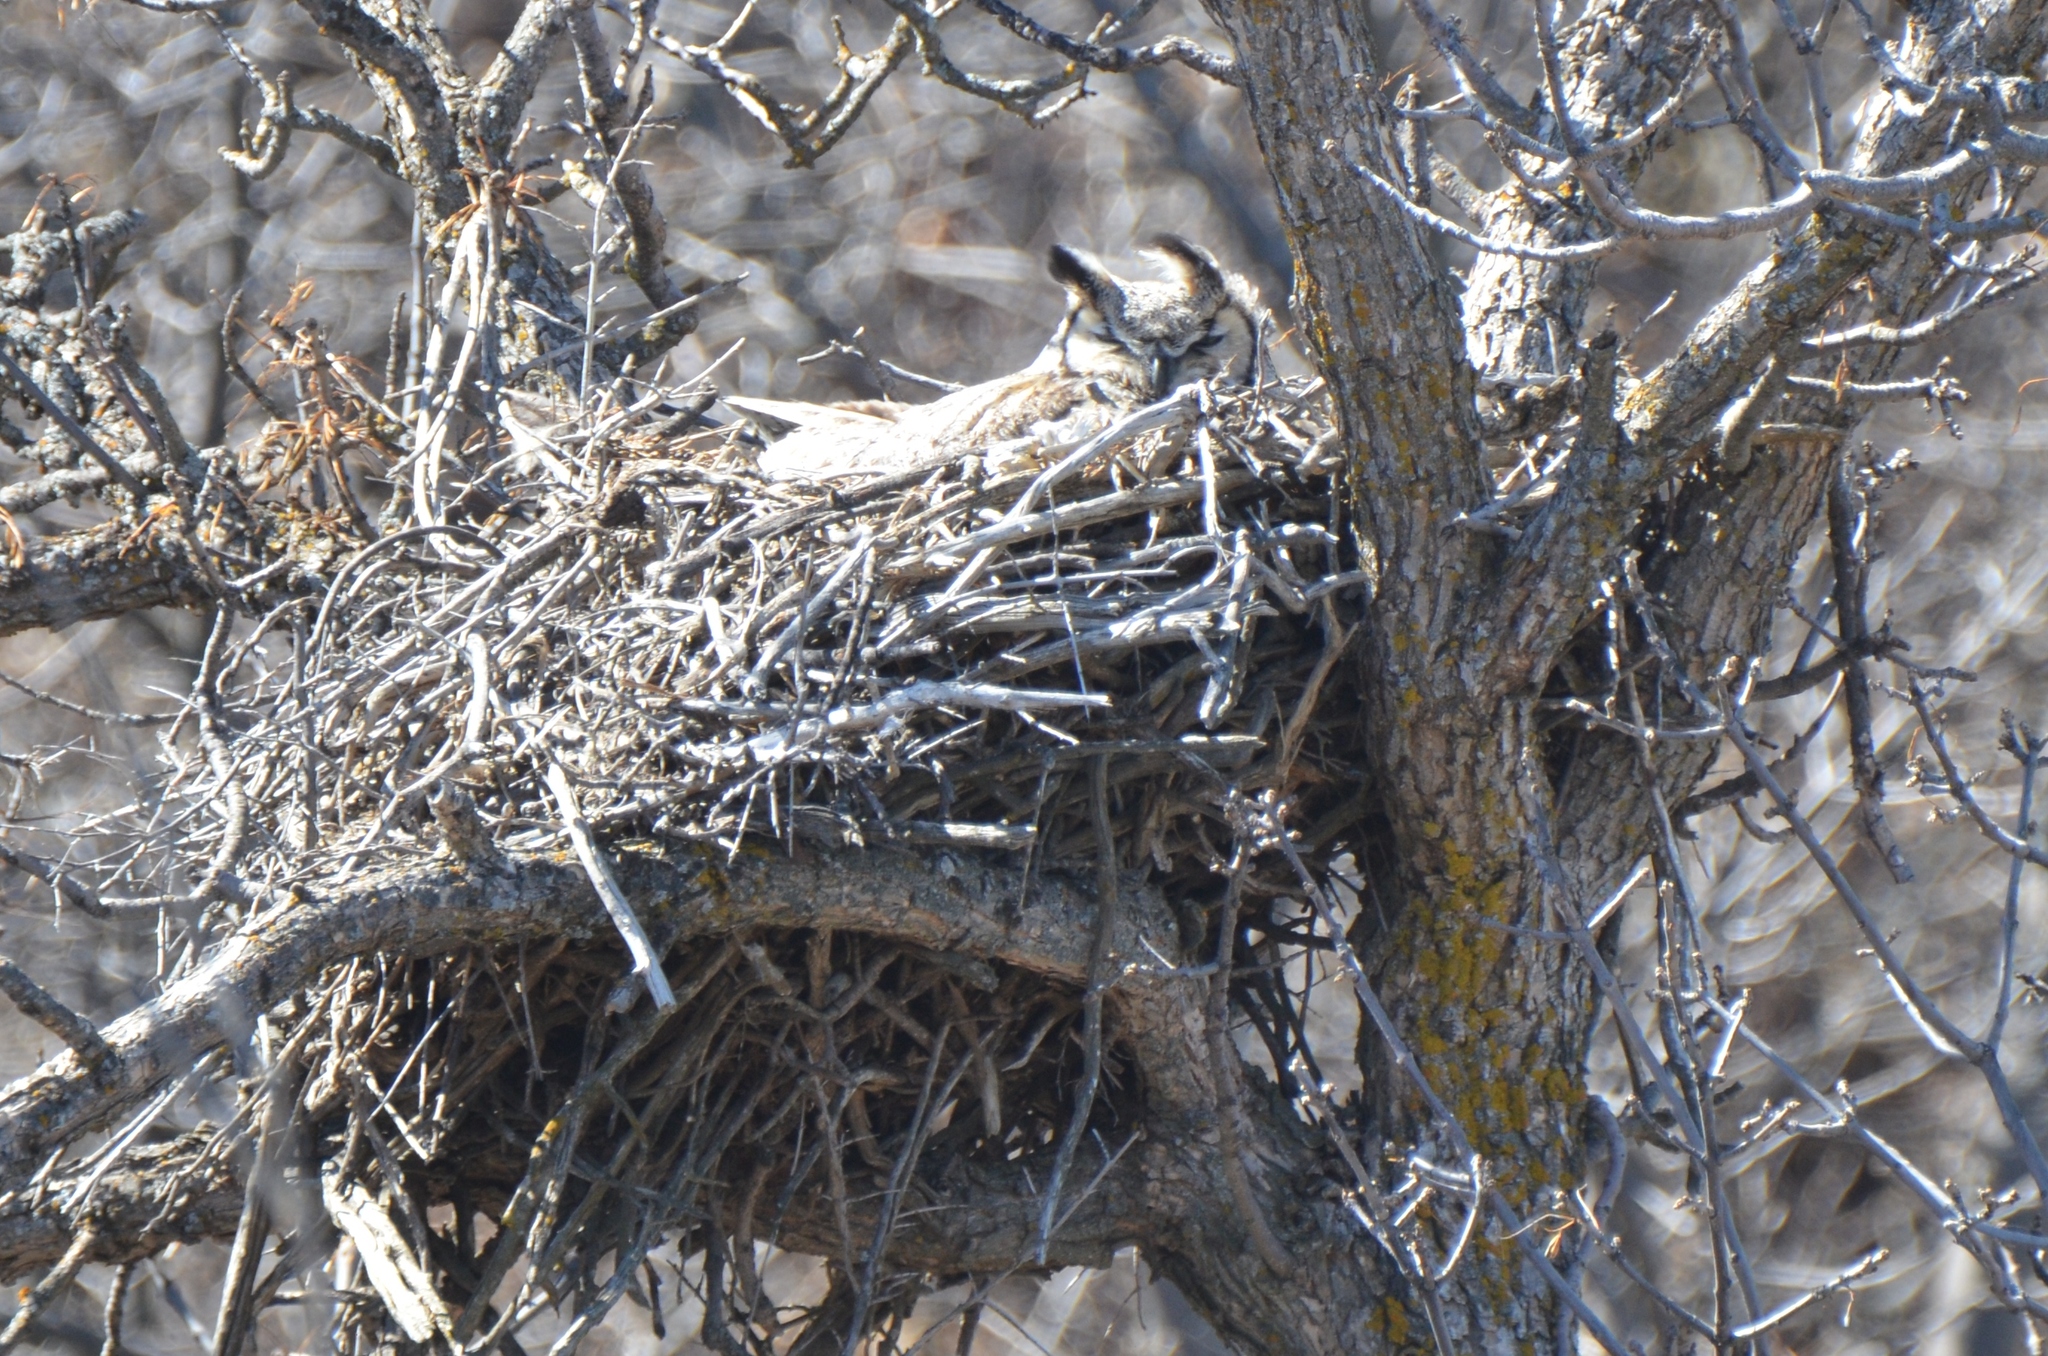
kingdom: Animalia
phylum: Chordata
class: Aves
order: Strigiformes
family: Strigidae
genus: Bubo
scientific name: Bubo virginianus
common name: Great horned owl
